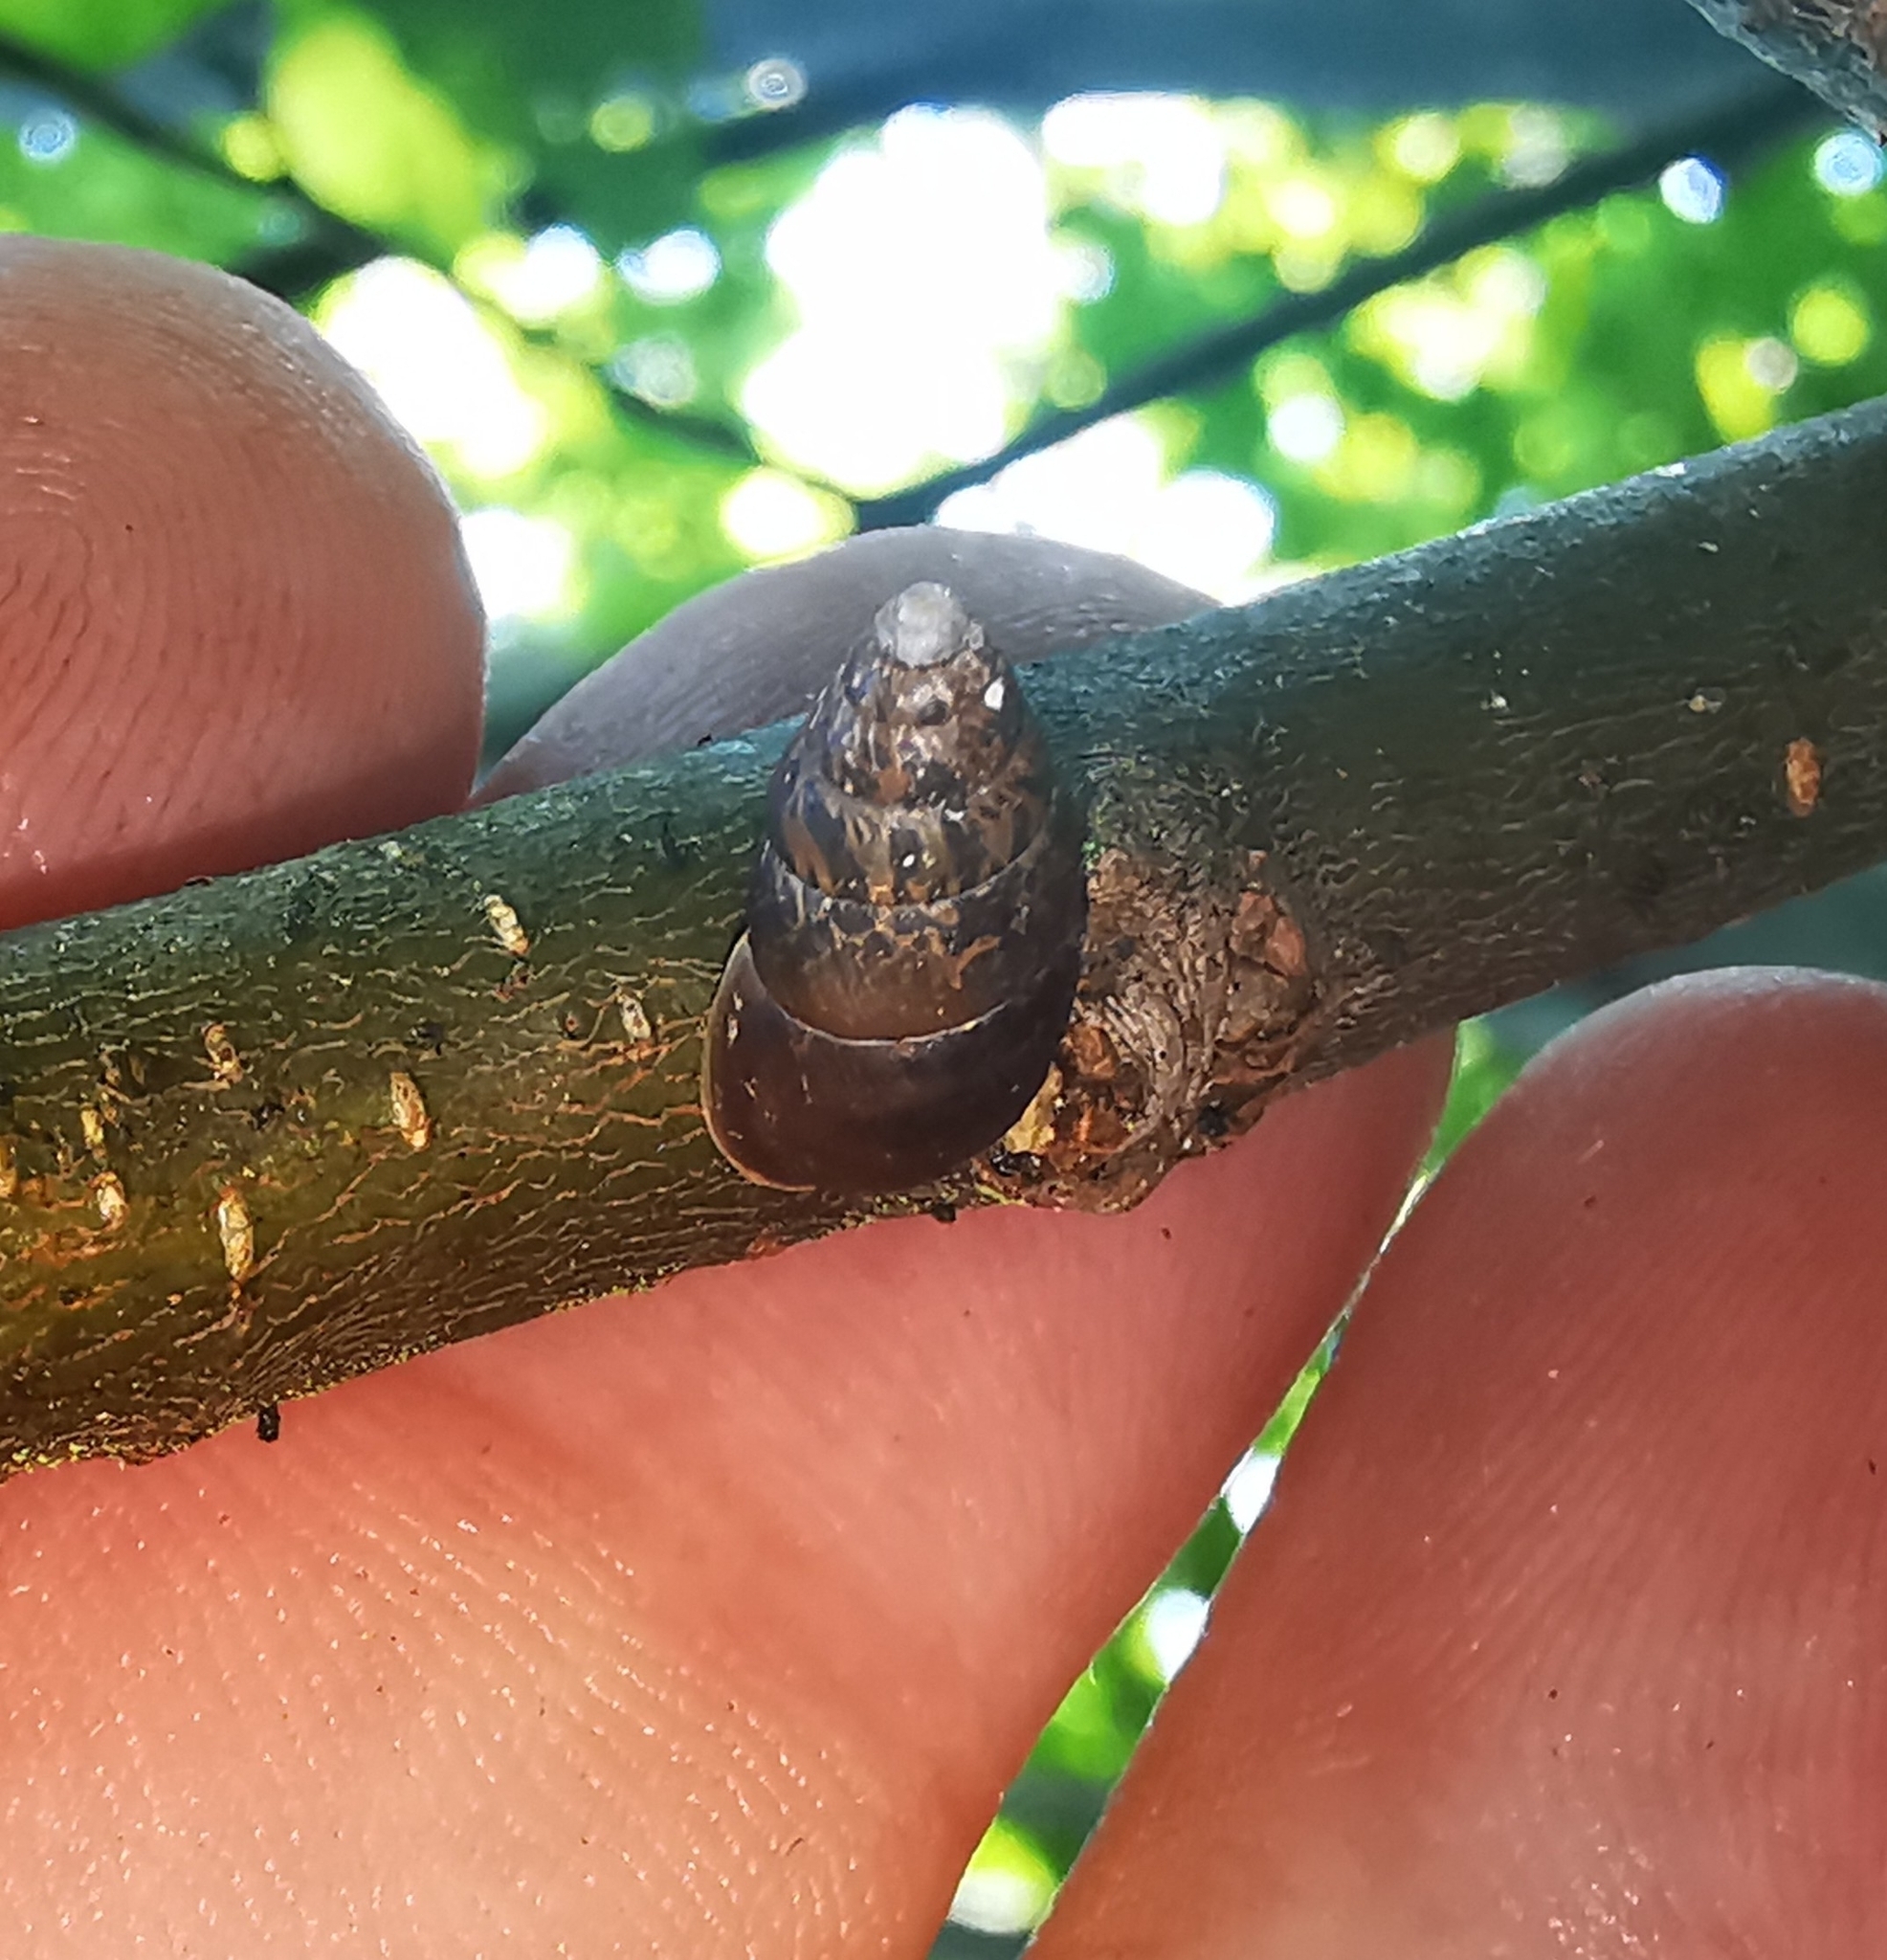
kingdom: Animalia
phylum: Mollusca
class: Gastropoda
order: Stylommatophora
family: Enidae
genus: Ena
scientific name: Ena montana
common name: Mountain bulin
